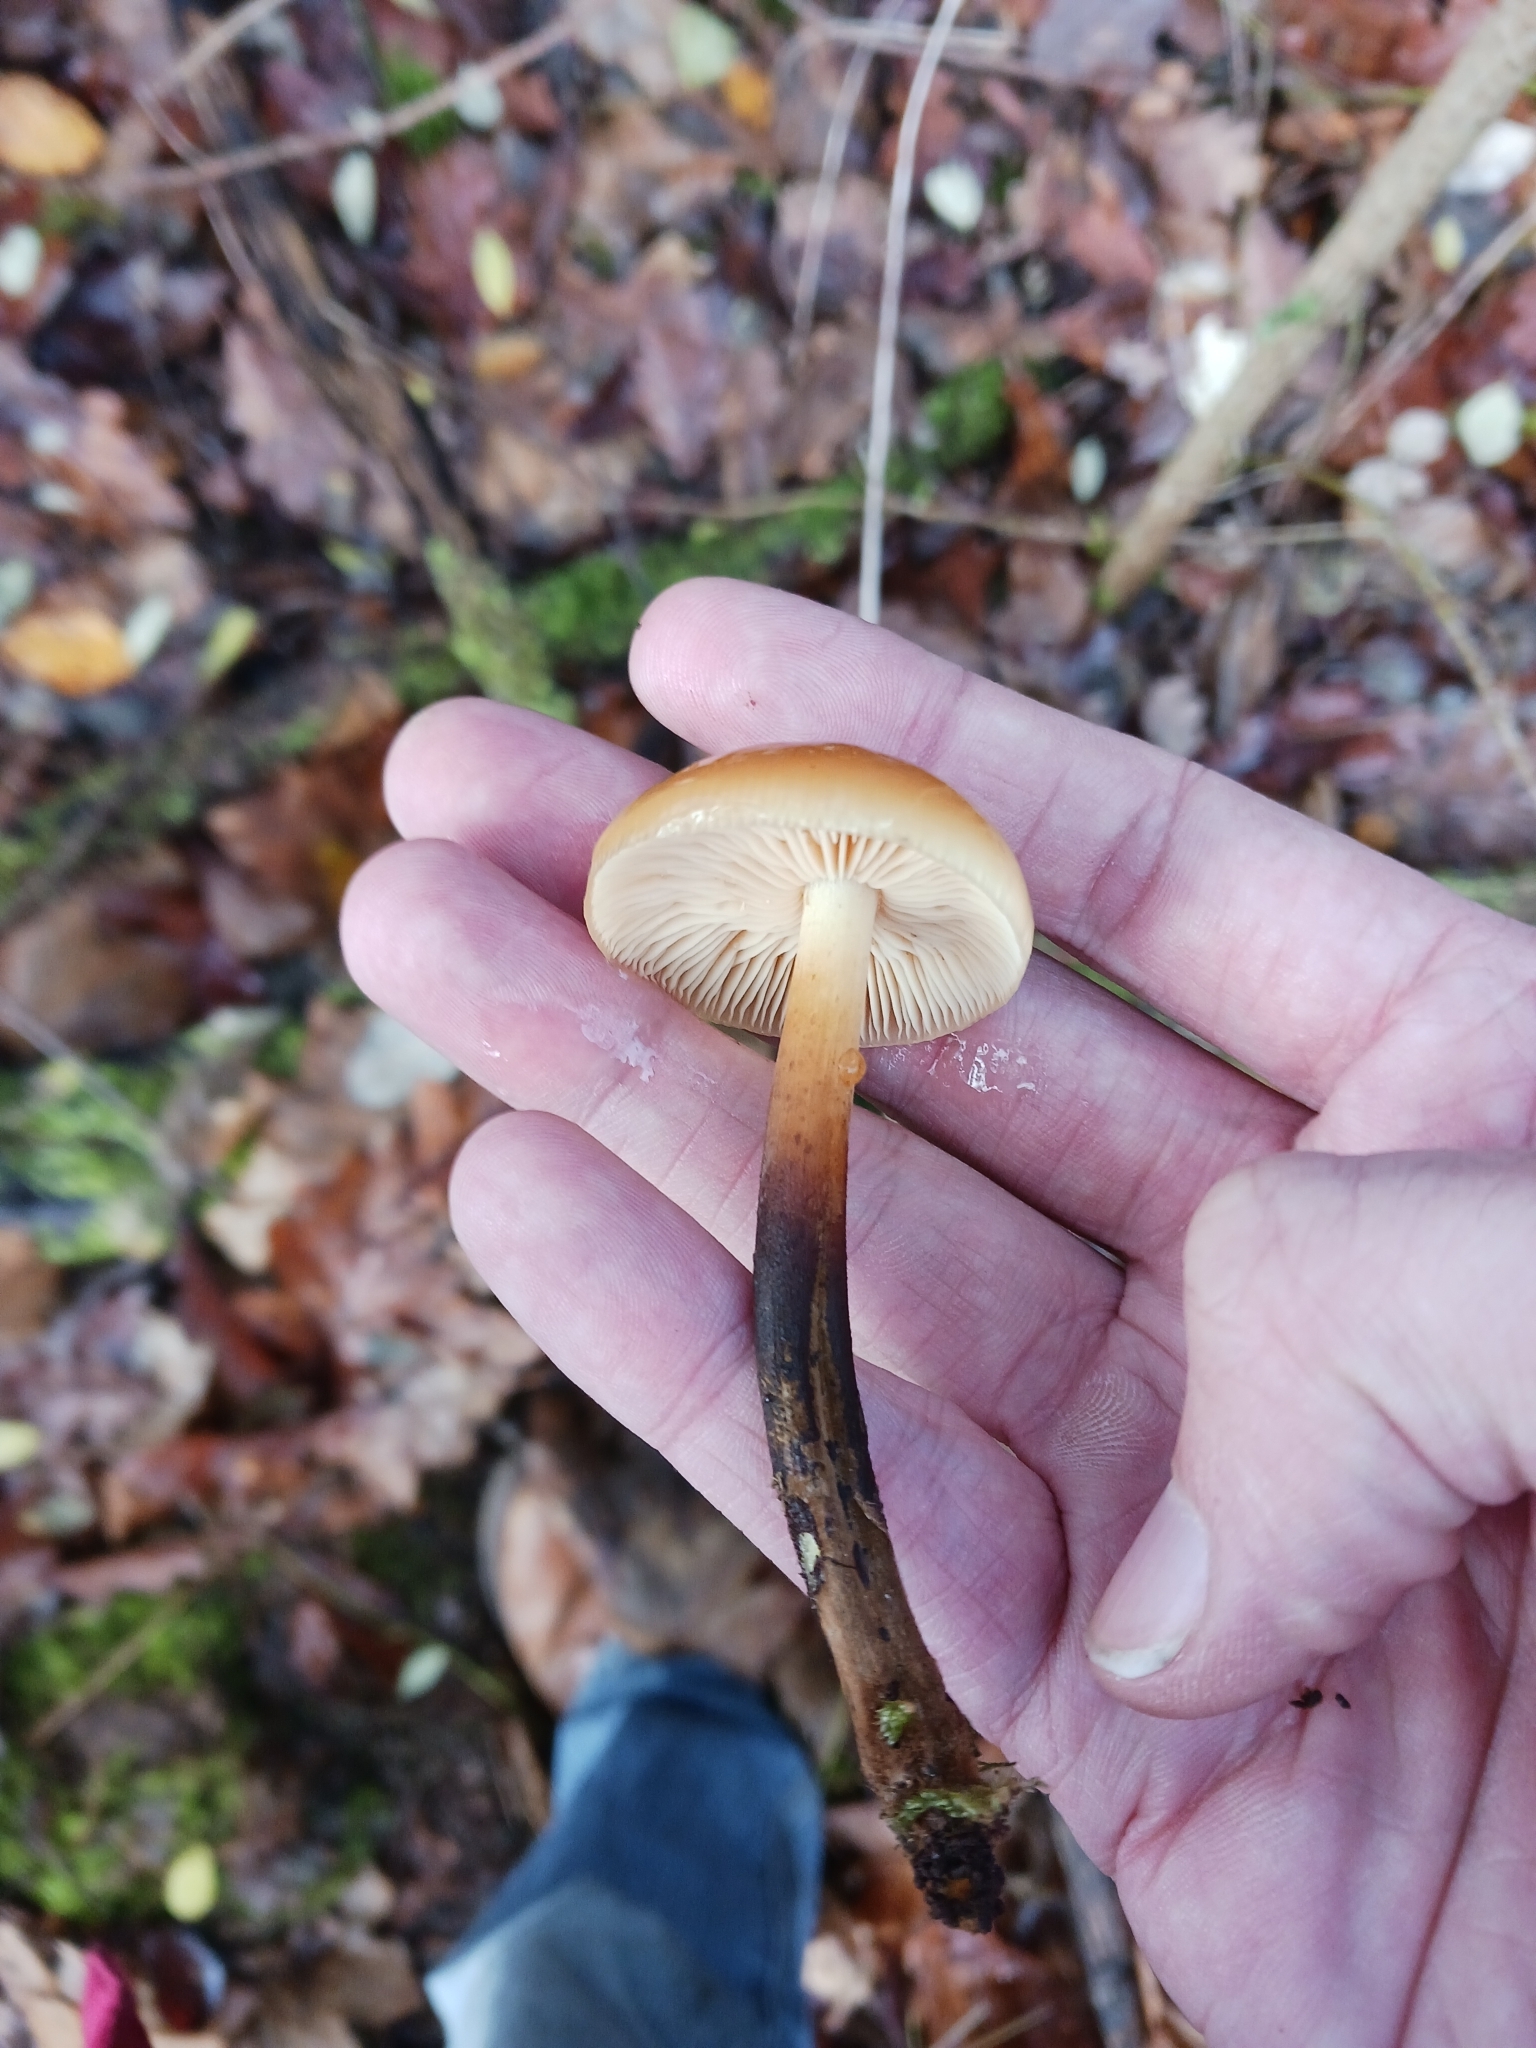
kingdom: Fungi
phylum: Basidiomycota
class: Agaricomycetes
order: Agaricales
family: Physalacriaceae
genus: Flammulina
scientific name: Flammulina
